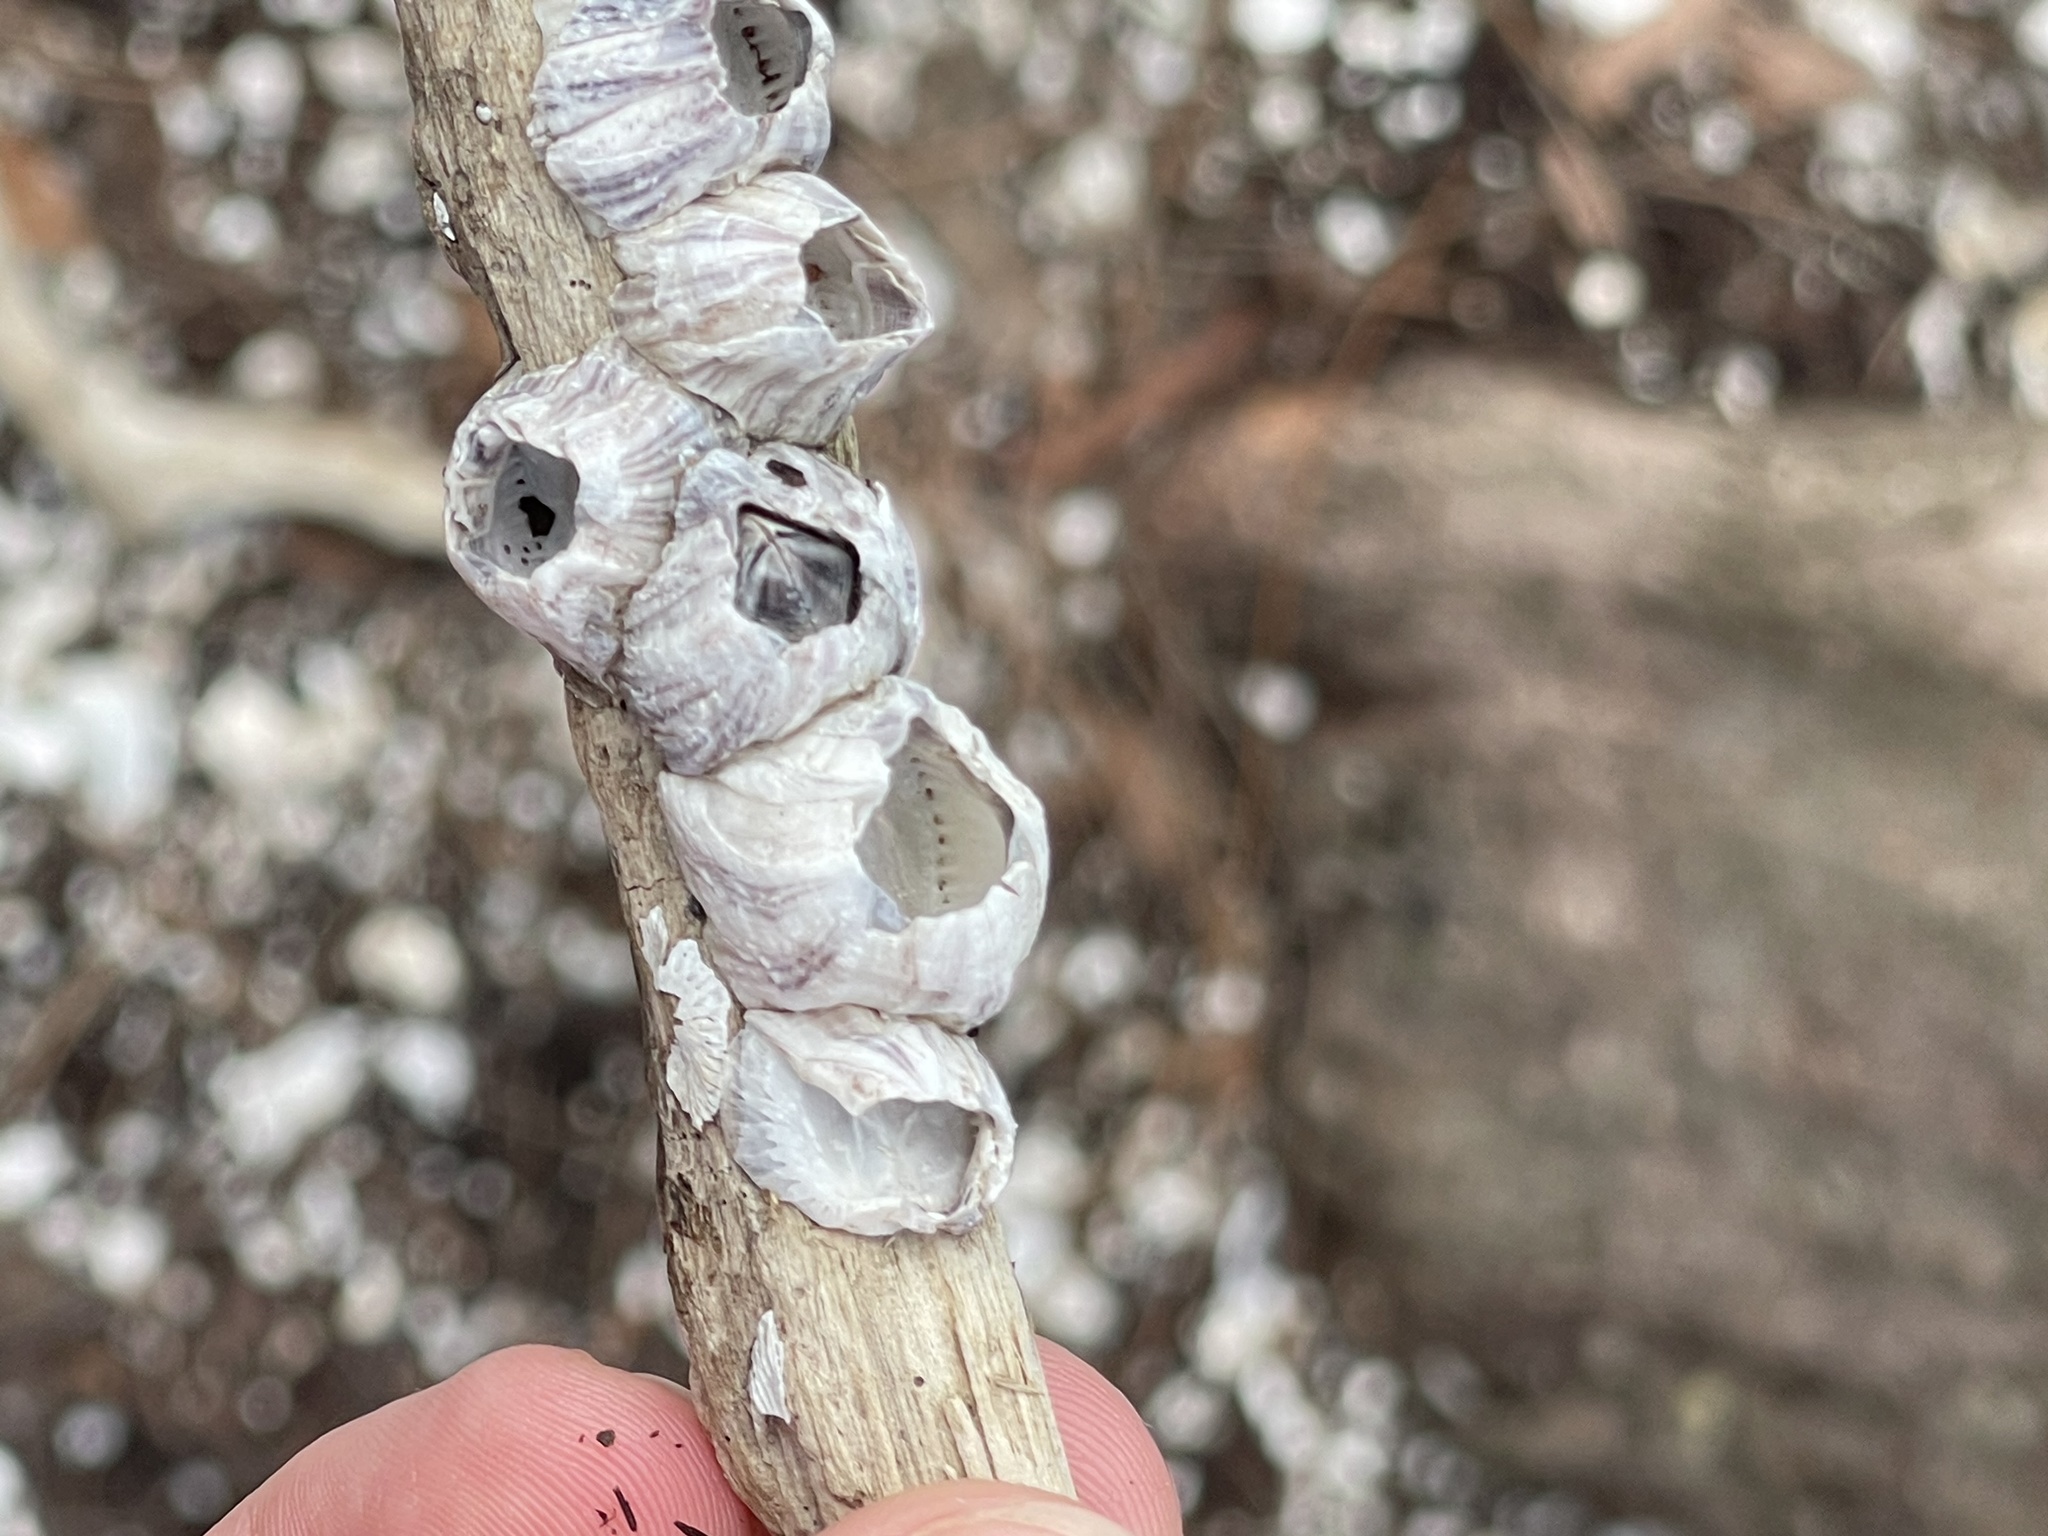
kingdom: Animalia
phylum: Arthropoda
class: Maxillopoda
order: Sessilia
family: Balanidae
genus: Amphibalanus
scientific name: Amphibalanus amphitrite
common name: Striped acorn barnacle
